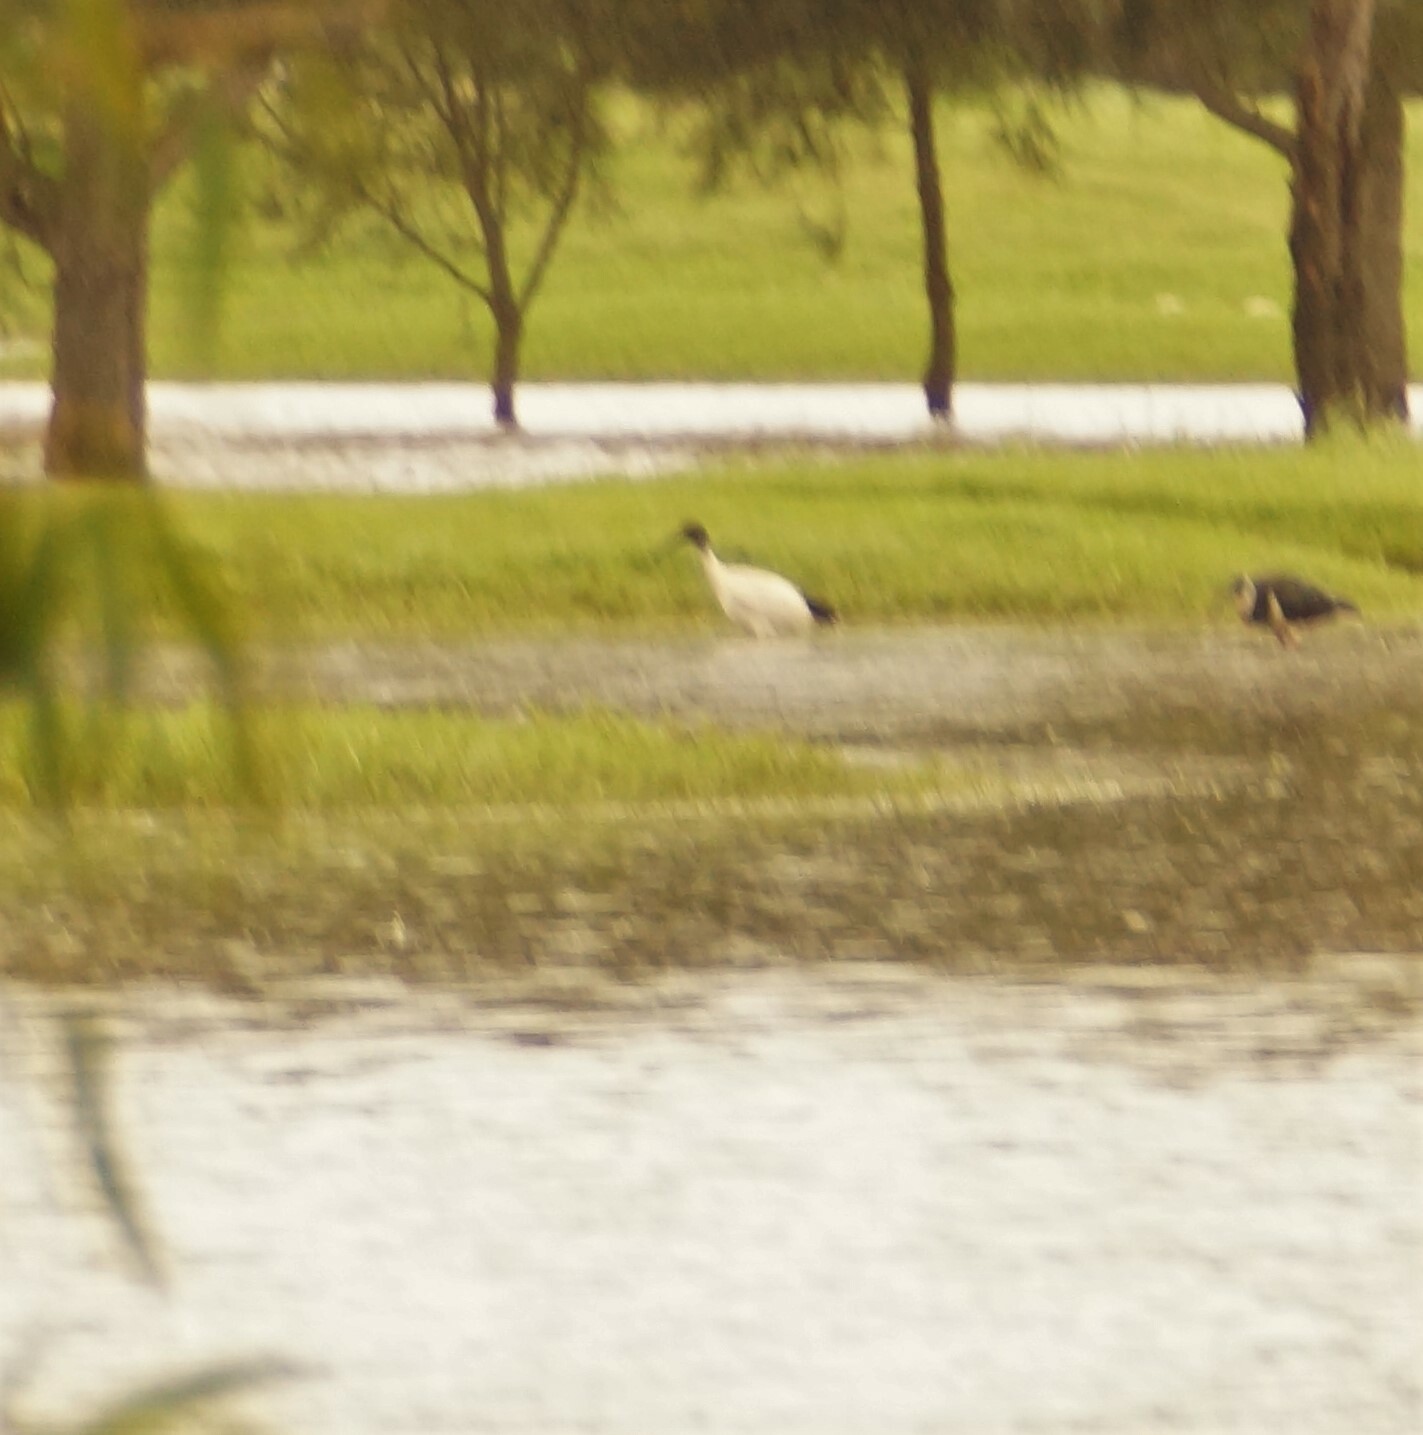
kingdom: Animalia
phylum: Chordata
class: Aves
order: Pelecaniformes
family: Threskiornithidae
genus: Threskiornis
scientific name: Threskiornis molucca
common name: Australian white ibis
